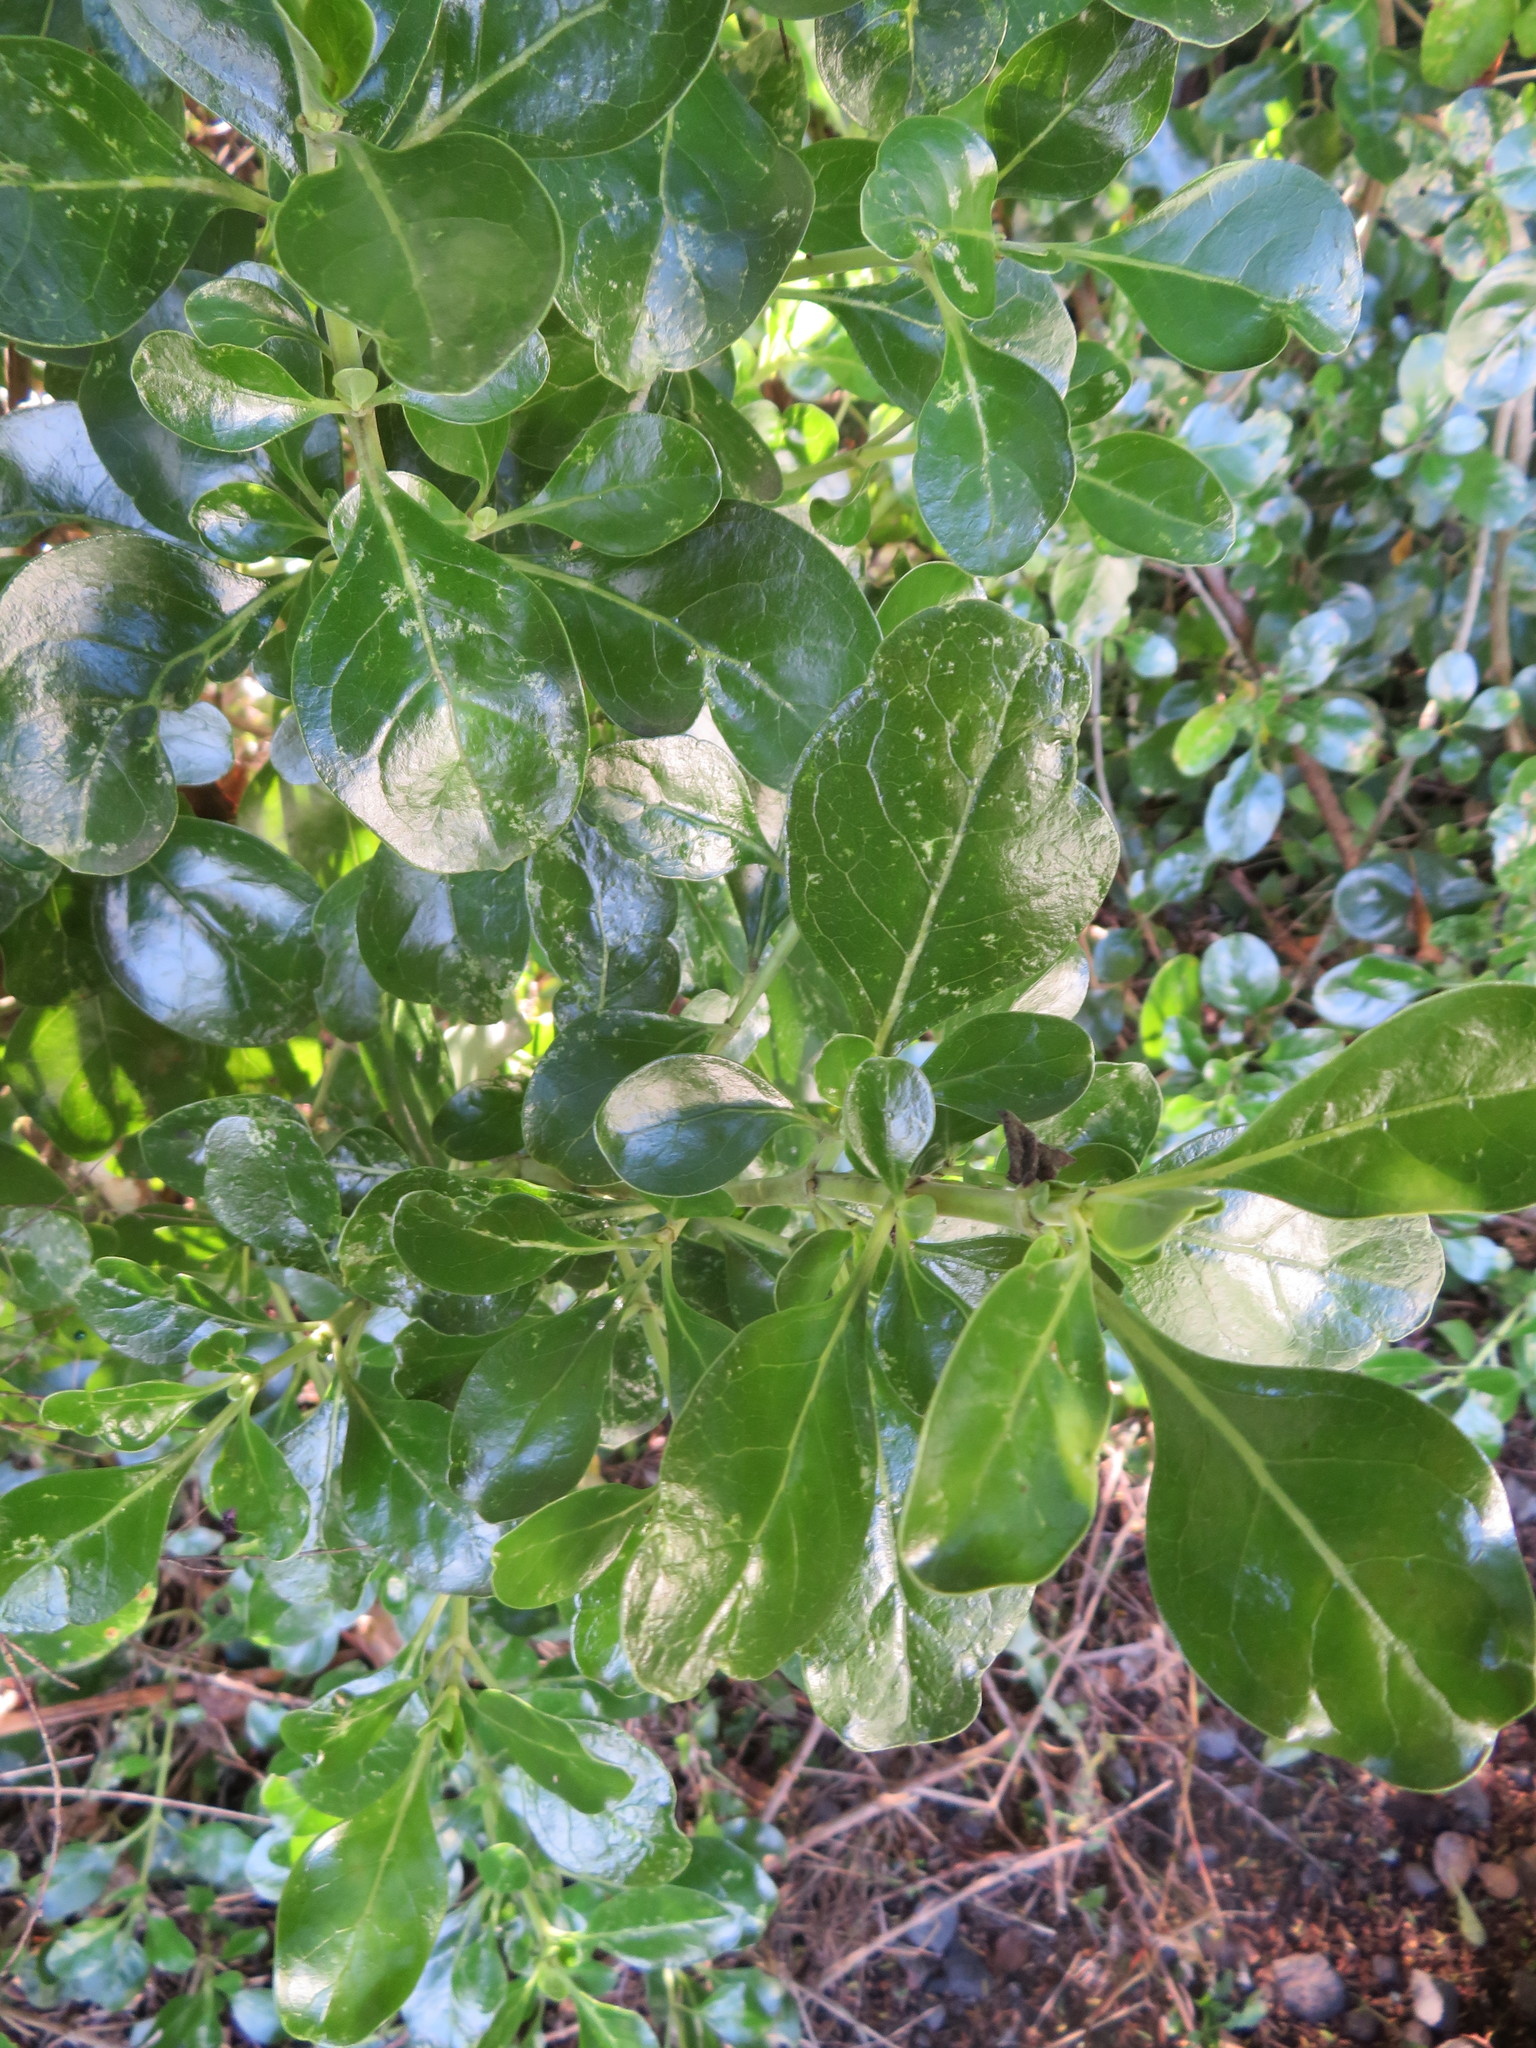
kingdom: Plantae
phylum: Tracheophyta
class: Magnoliopsida
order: Gentianales
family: Rubiaceae
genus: Coprosma
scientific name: Coprosma repens
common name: Tree bedstraw
